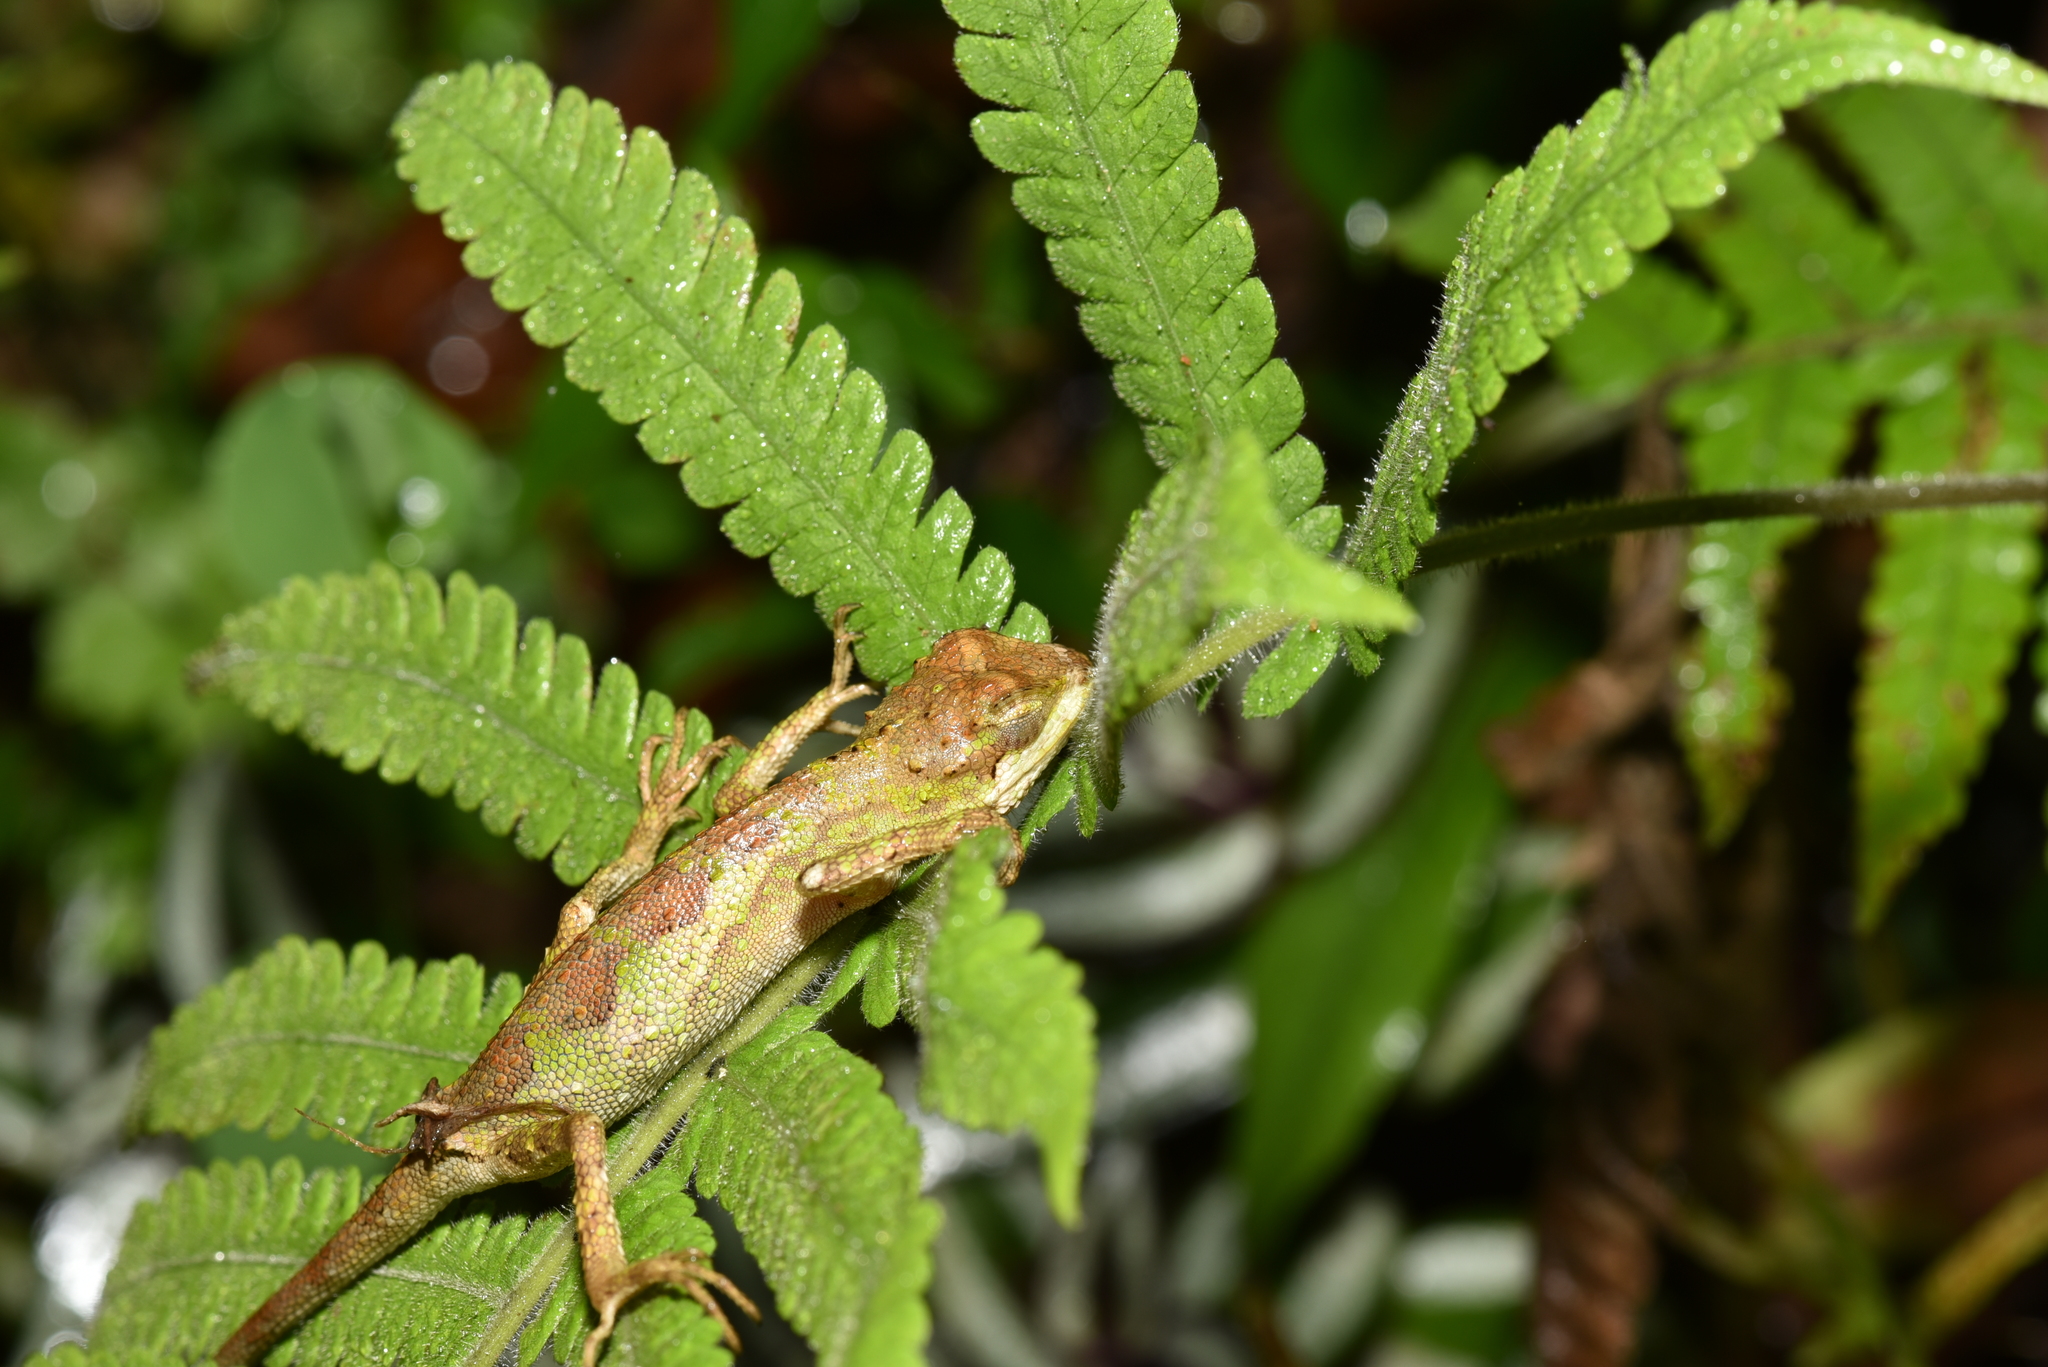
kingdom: Fungi
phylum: Basidiomycota
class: Agaricomycetes
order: Boletales
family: Diplocystidiaceae
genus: Diploderma
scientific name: Diploderma polygonatum
